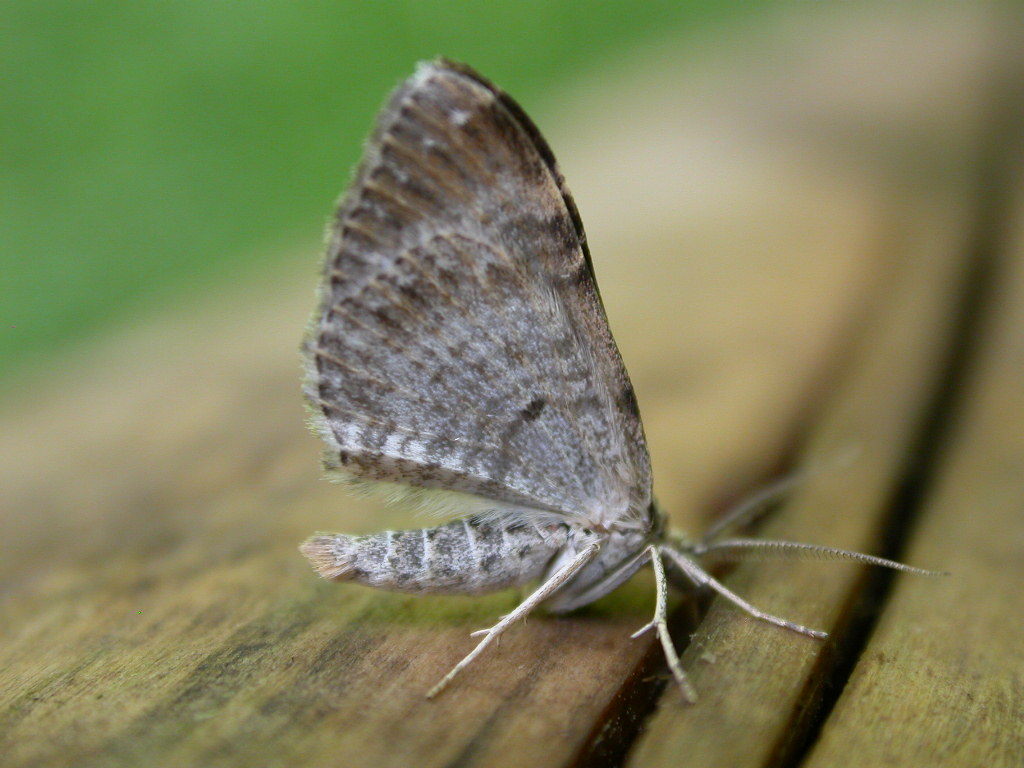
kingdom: Animalia
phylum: Arthropoda
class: Insecta
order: Lepidoptera
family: Geometridae
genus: Xanthorhoe
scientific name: Xanthorhoe ferrugata
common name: Dark-barred twin-spot carpet
